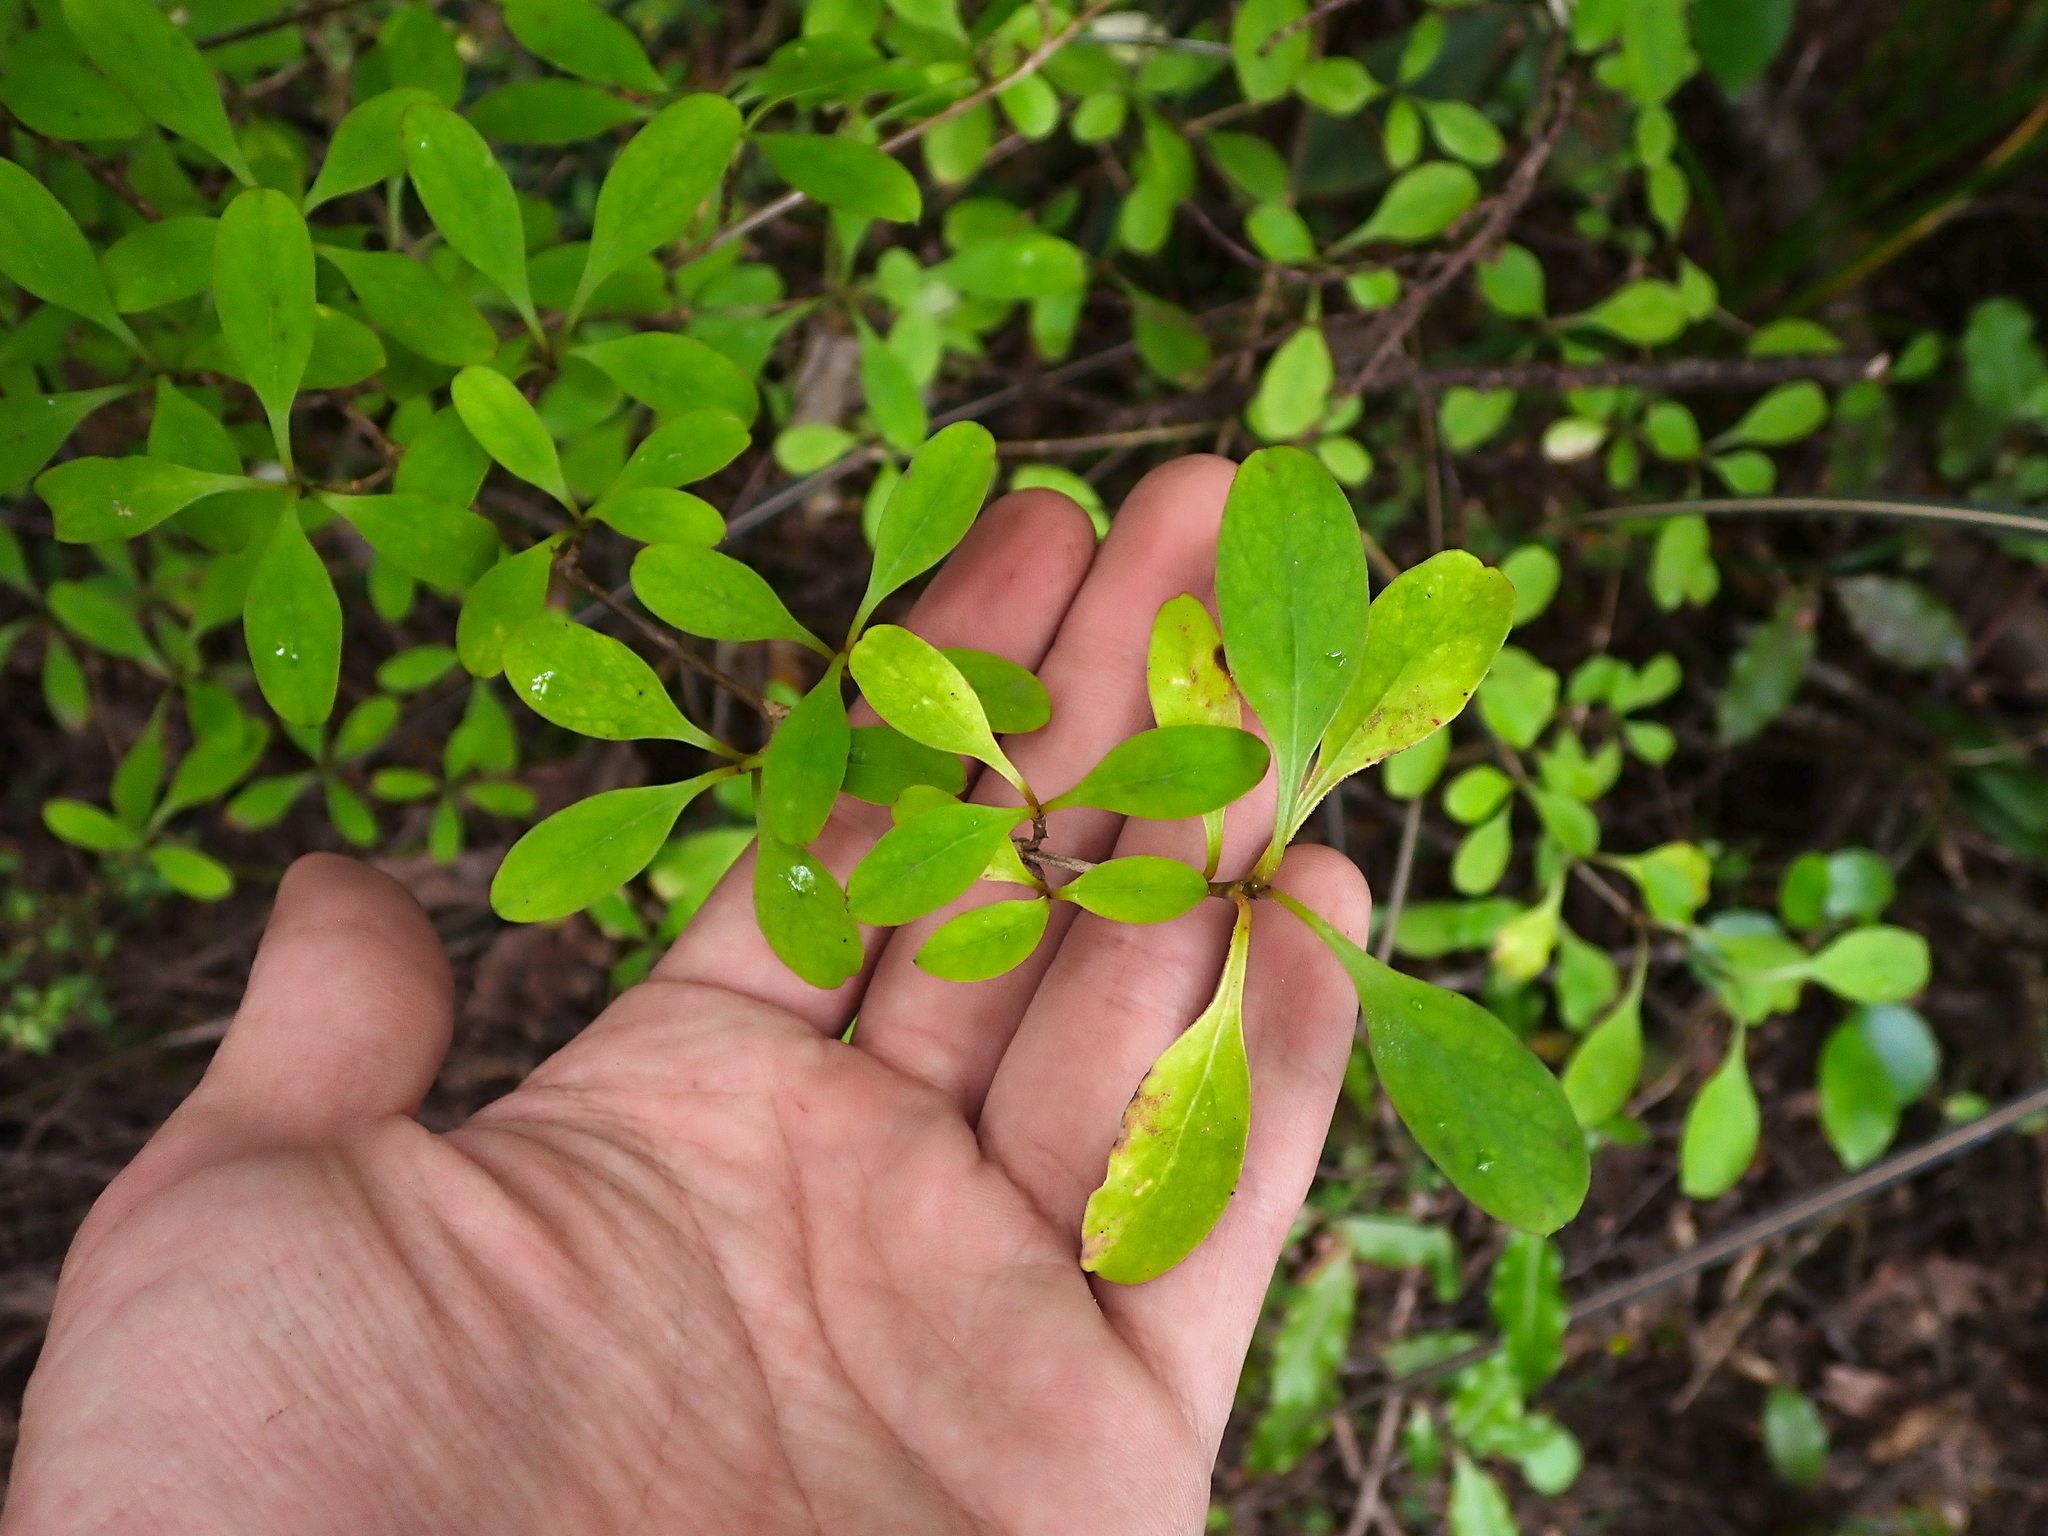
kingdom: Plantae
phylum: Tracheophyta
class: Magnoliopsida
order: Gentianales
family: Rubiaceae
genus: Coprosma
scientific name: Coprosma foetidissima
